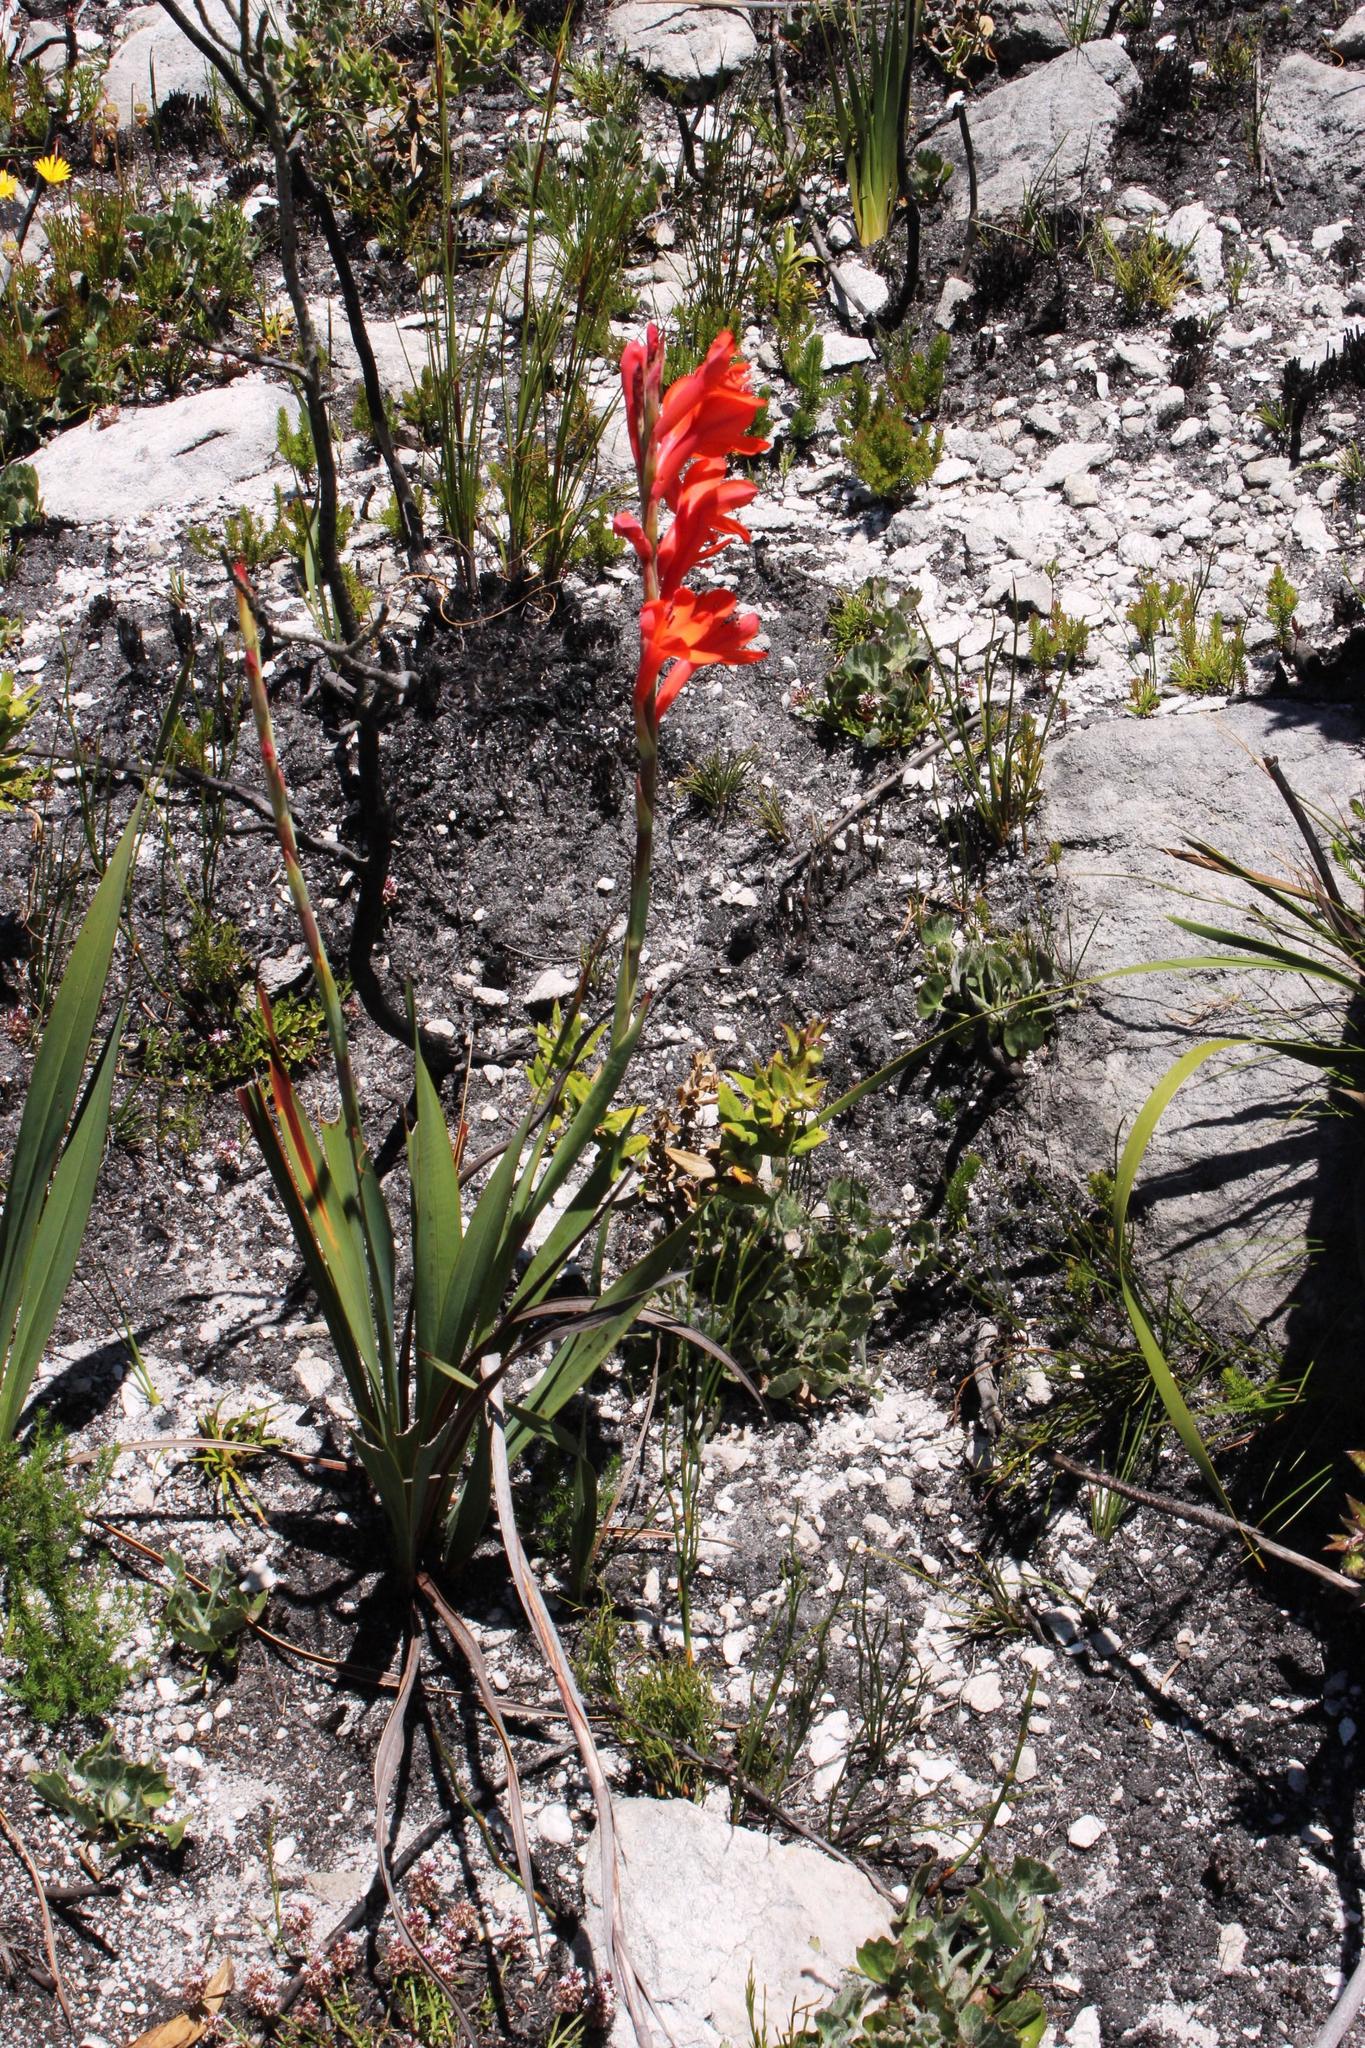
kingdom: Plantae
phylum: Tracheophyta
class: Liliopsida
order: Asparagales
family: Iridaceae
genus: Watsonia
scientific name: Watsonia schlechteri
